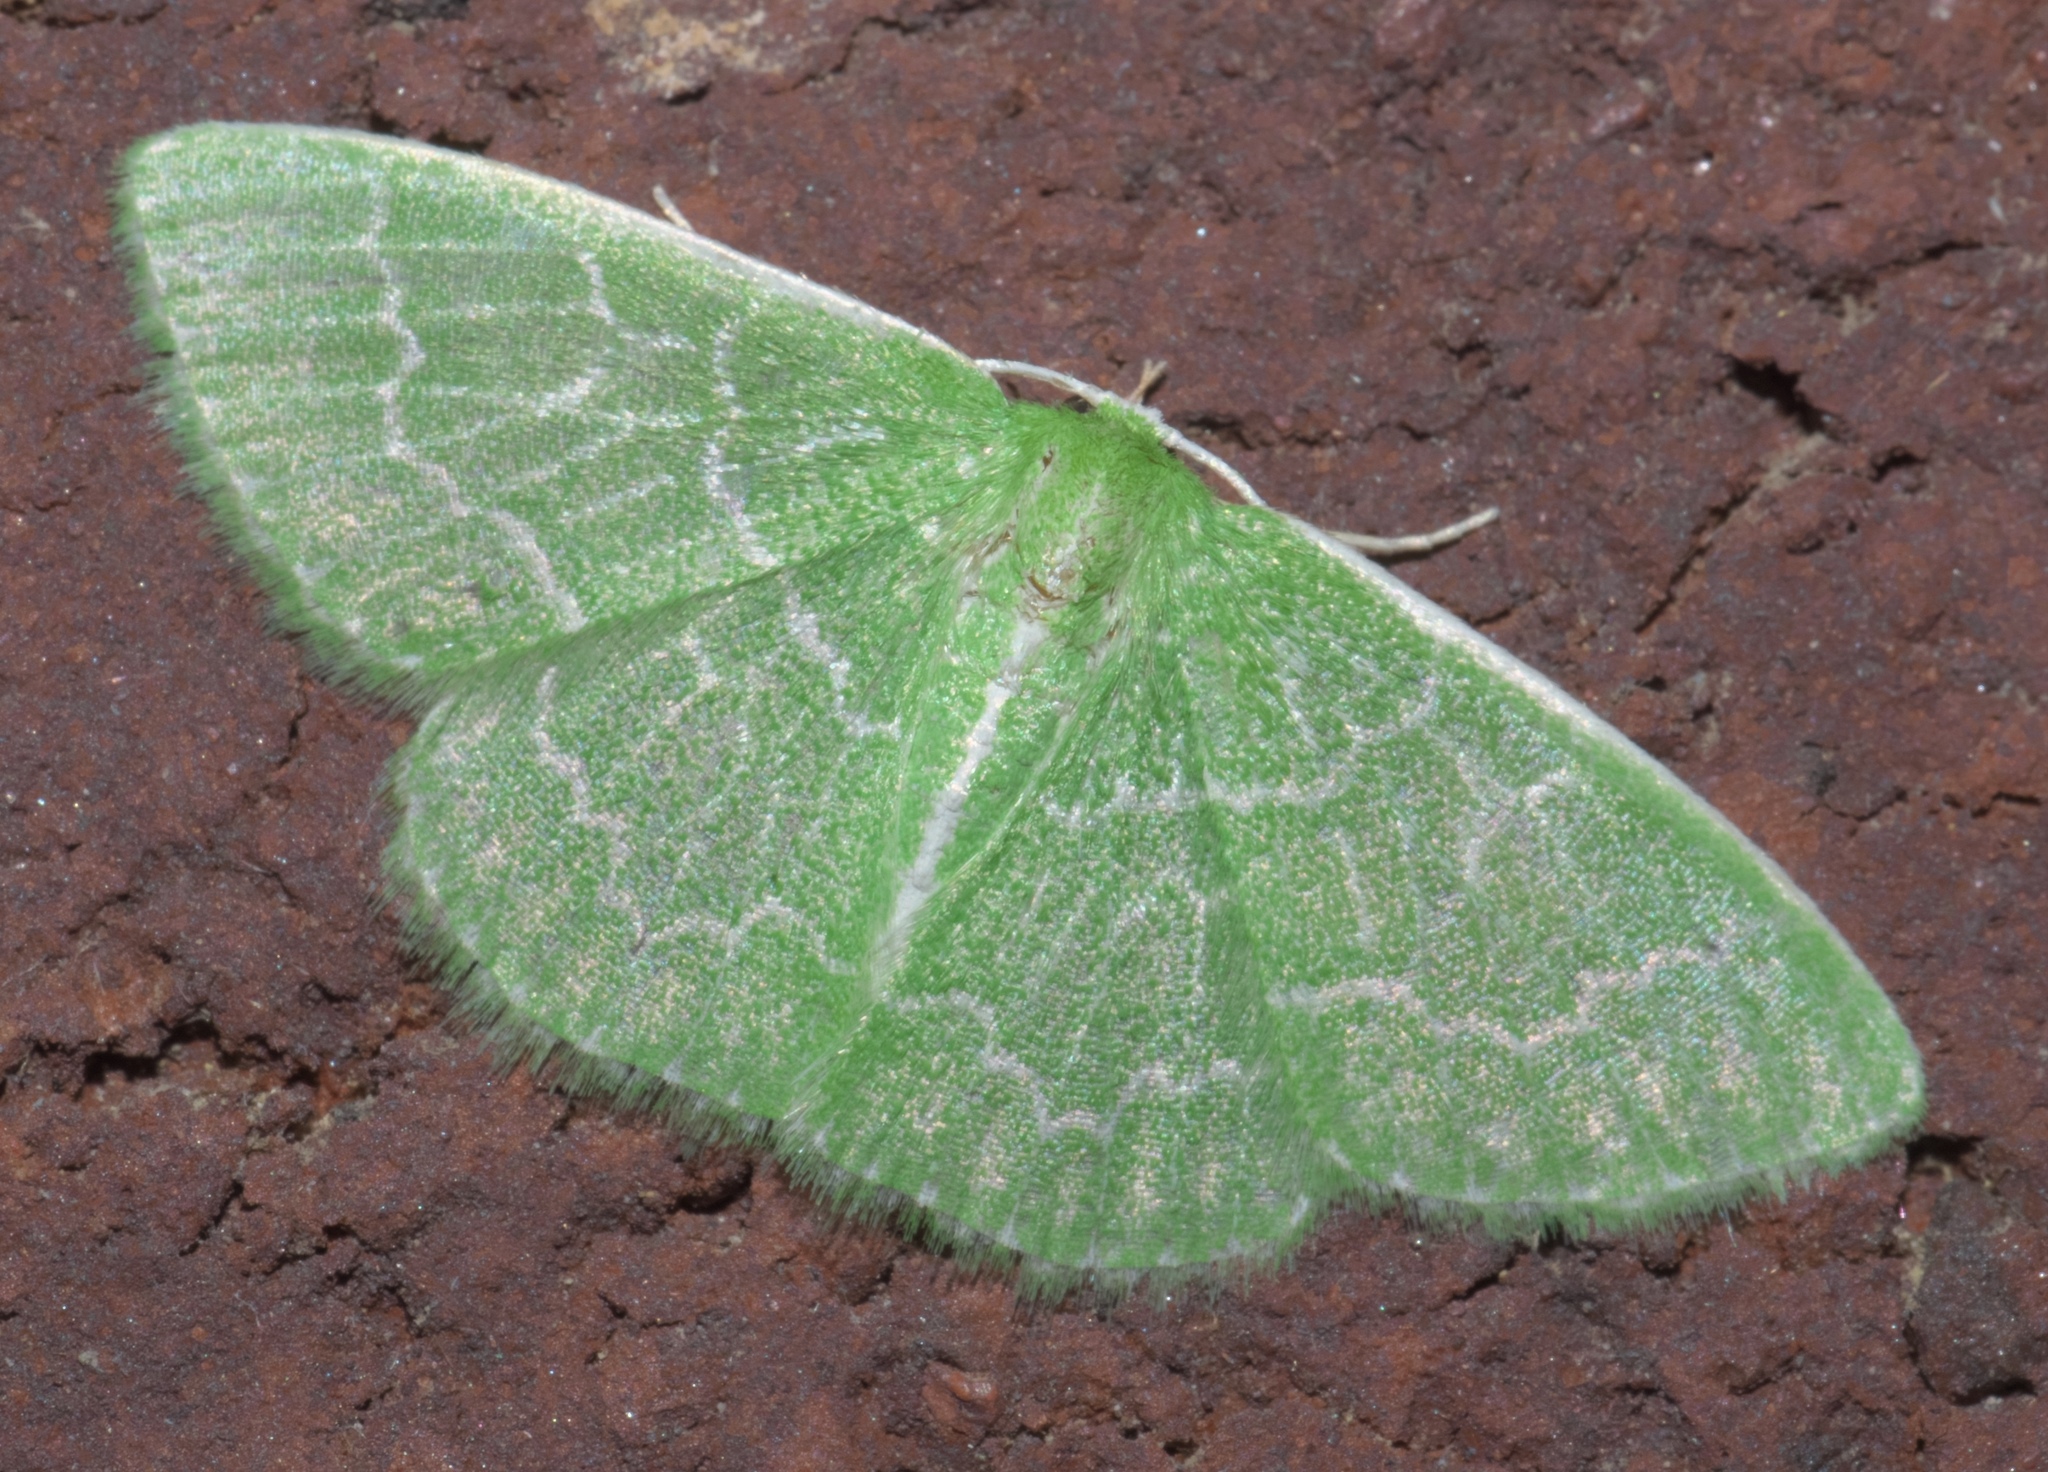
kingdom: Animalia
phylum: Arthropoda
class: Insecta
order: Lepidoptera
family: Geometridae
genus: Synchlora
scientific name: Synchlora frondaria
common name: Southern emerald
